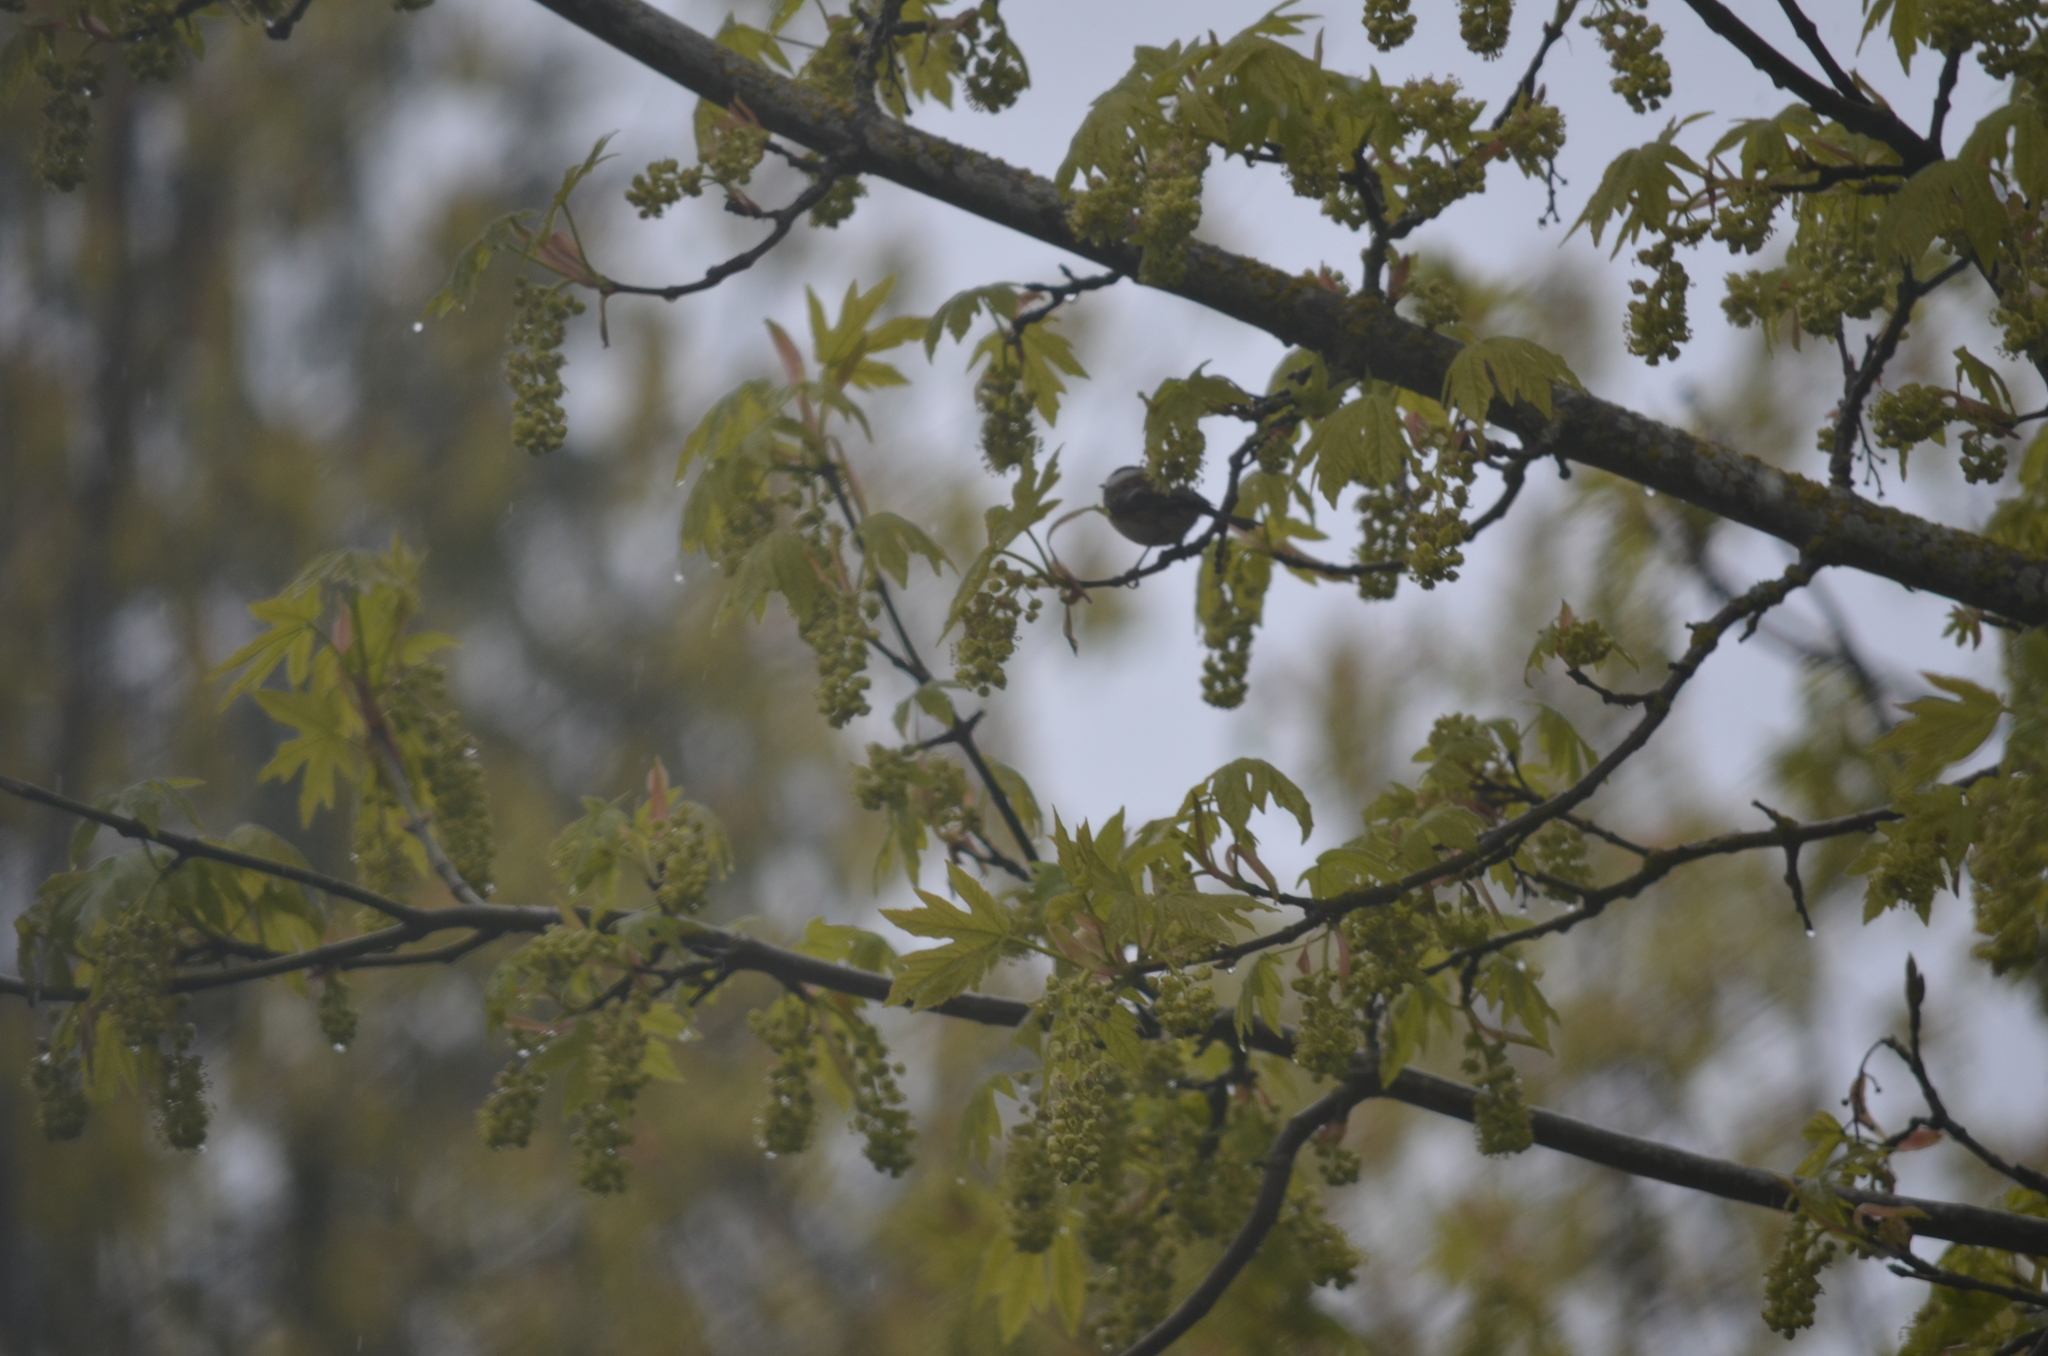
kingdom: Animalia
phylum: Chordata
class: Aves
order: Passeriformes
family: Paridae
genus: Poecile
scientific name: Poecile rufescens
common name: Chestnut-backed chickadee
